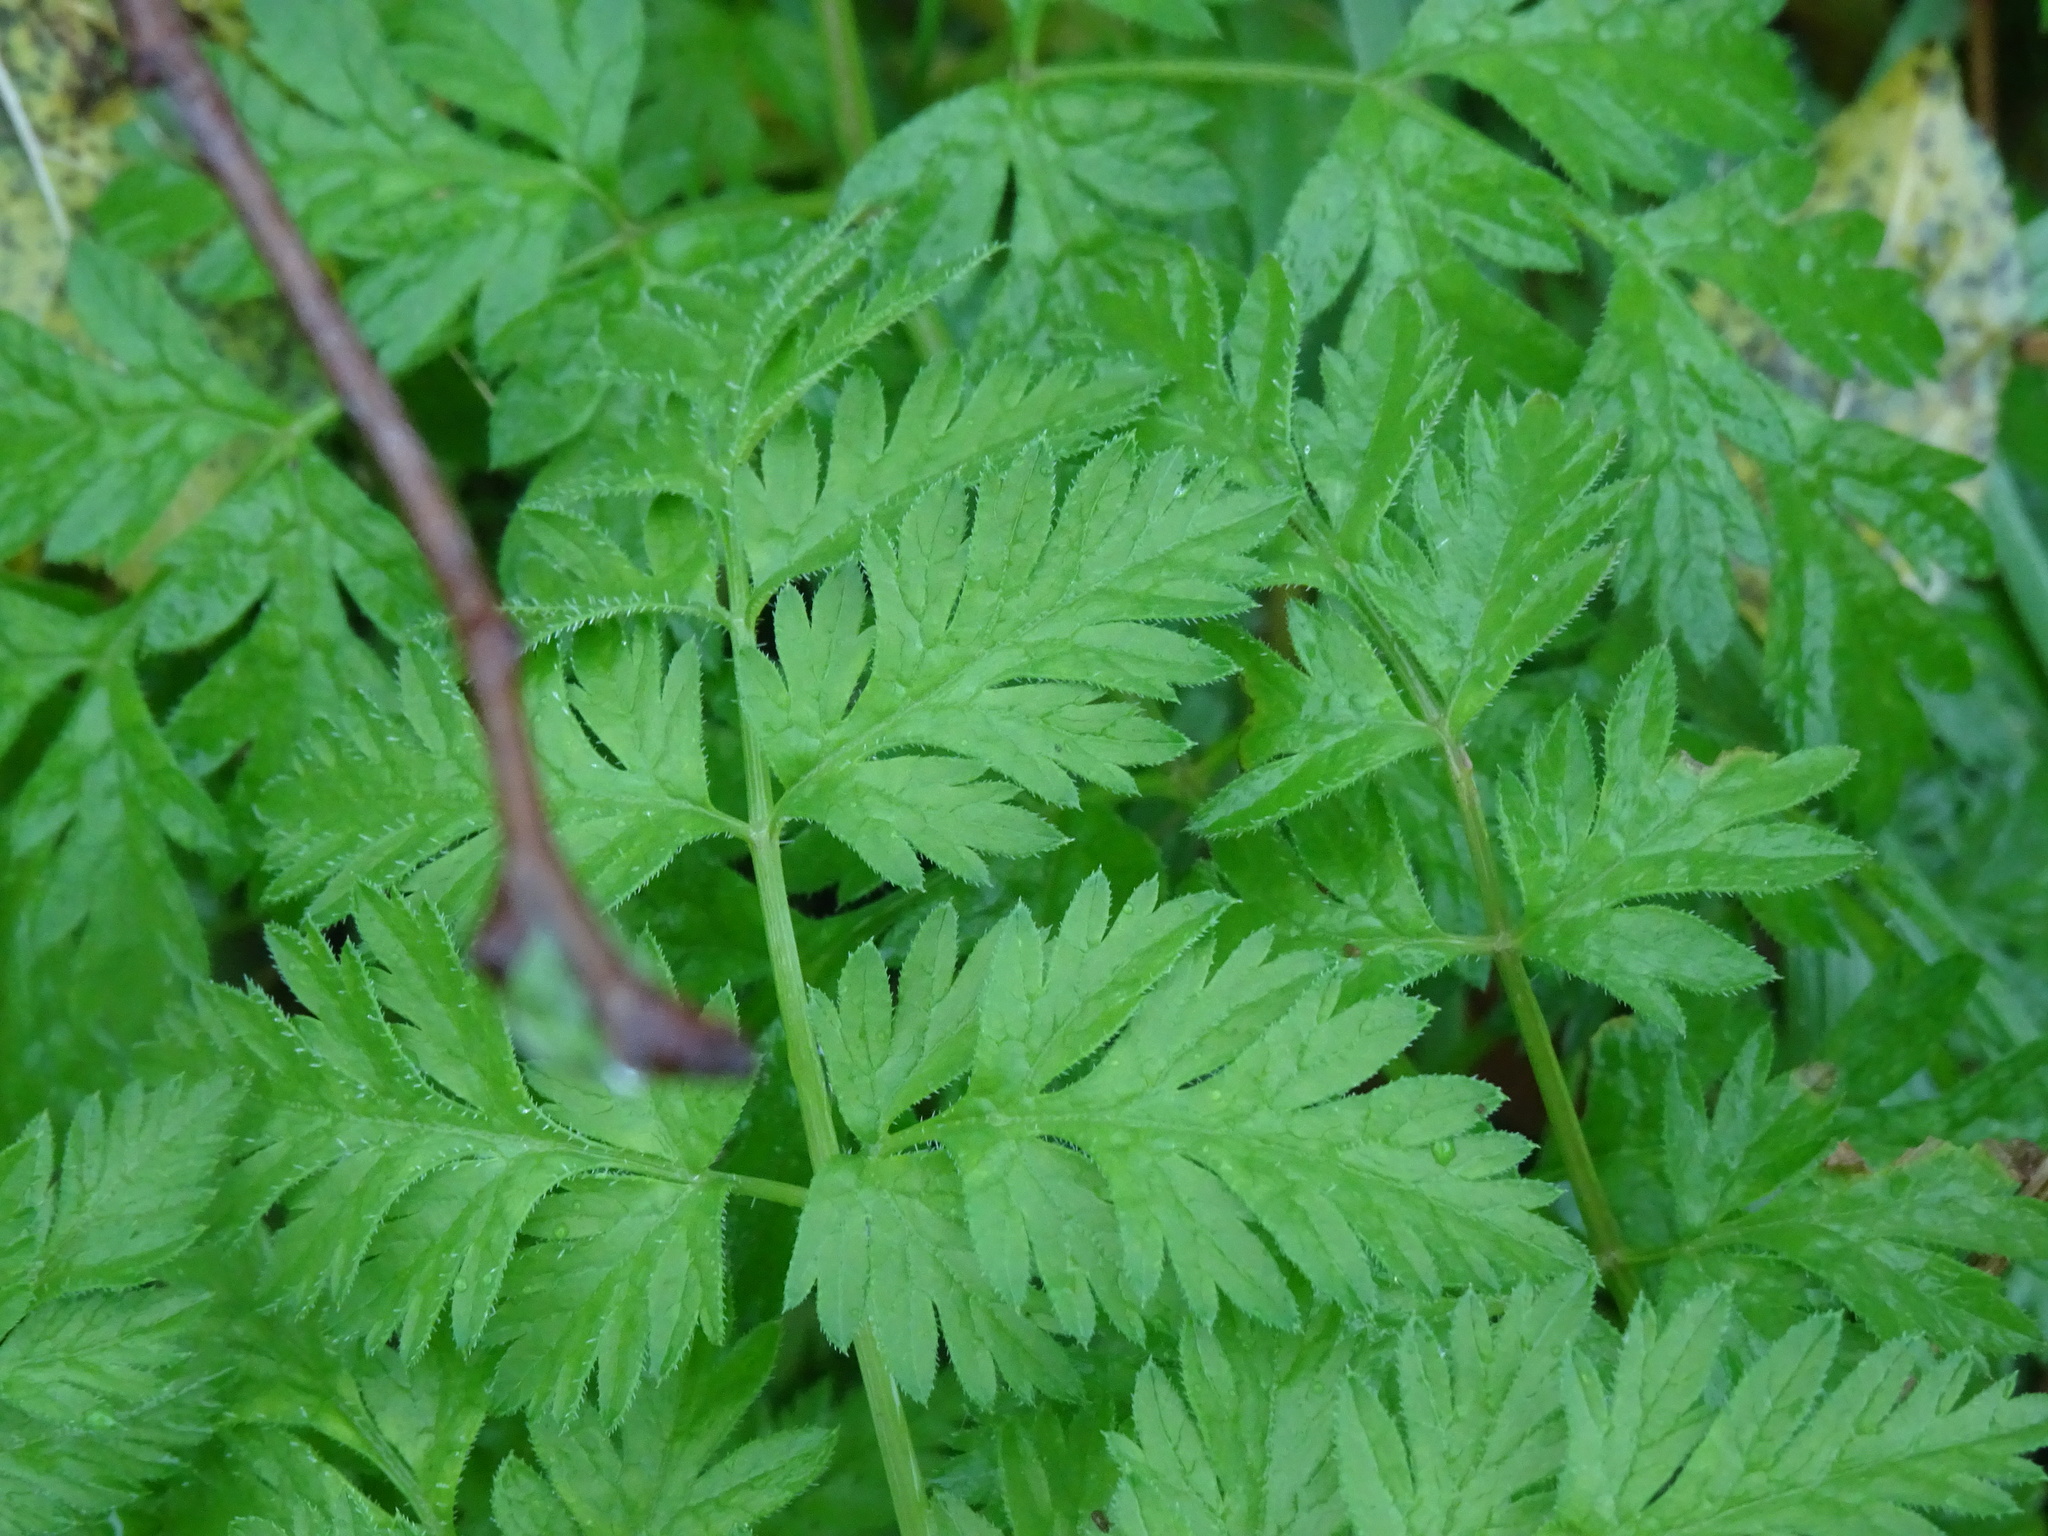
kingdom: Plantae
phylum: Tracheophyta
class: Magnoliopsida
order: Apiales
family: Apiaceae
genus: Anthriscus
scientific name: Anthriscus sylvestris
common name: Cow parsley
